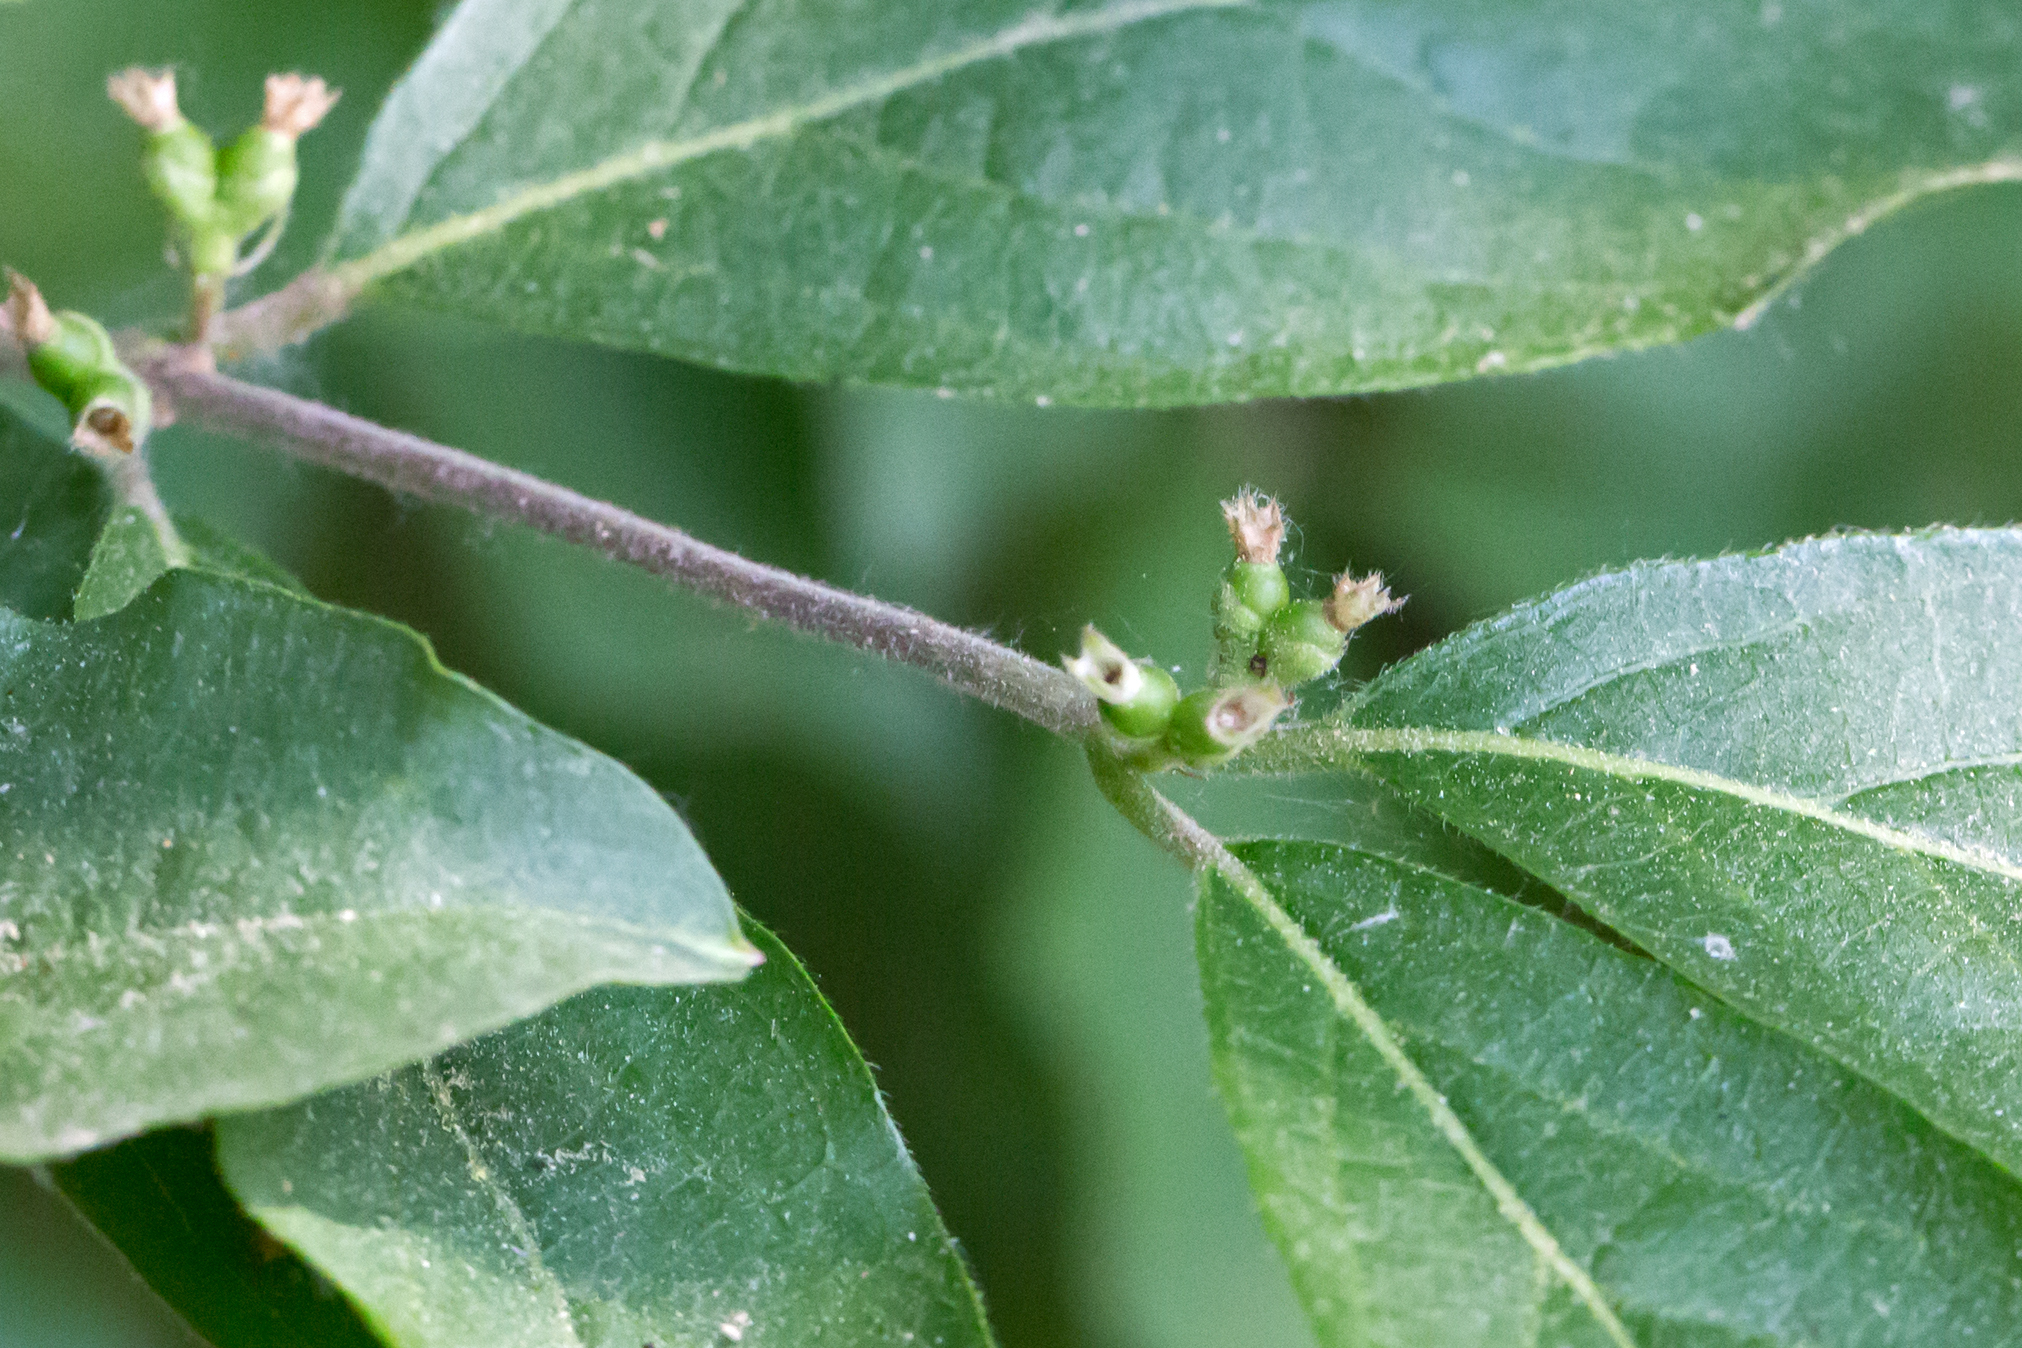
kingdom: Plantae
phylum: Tracheophyta
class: Magnoliopsida
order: Dipsacales
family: Caprifoliaceae
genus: Lonicera
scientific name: Lonicera maackii
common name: Amur honeysuckle
